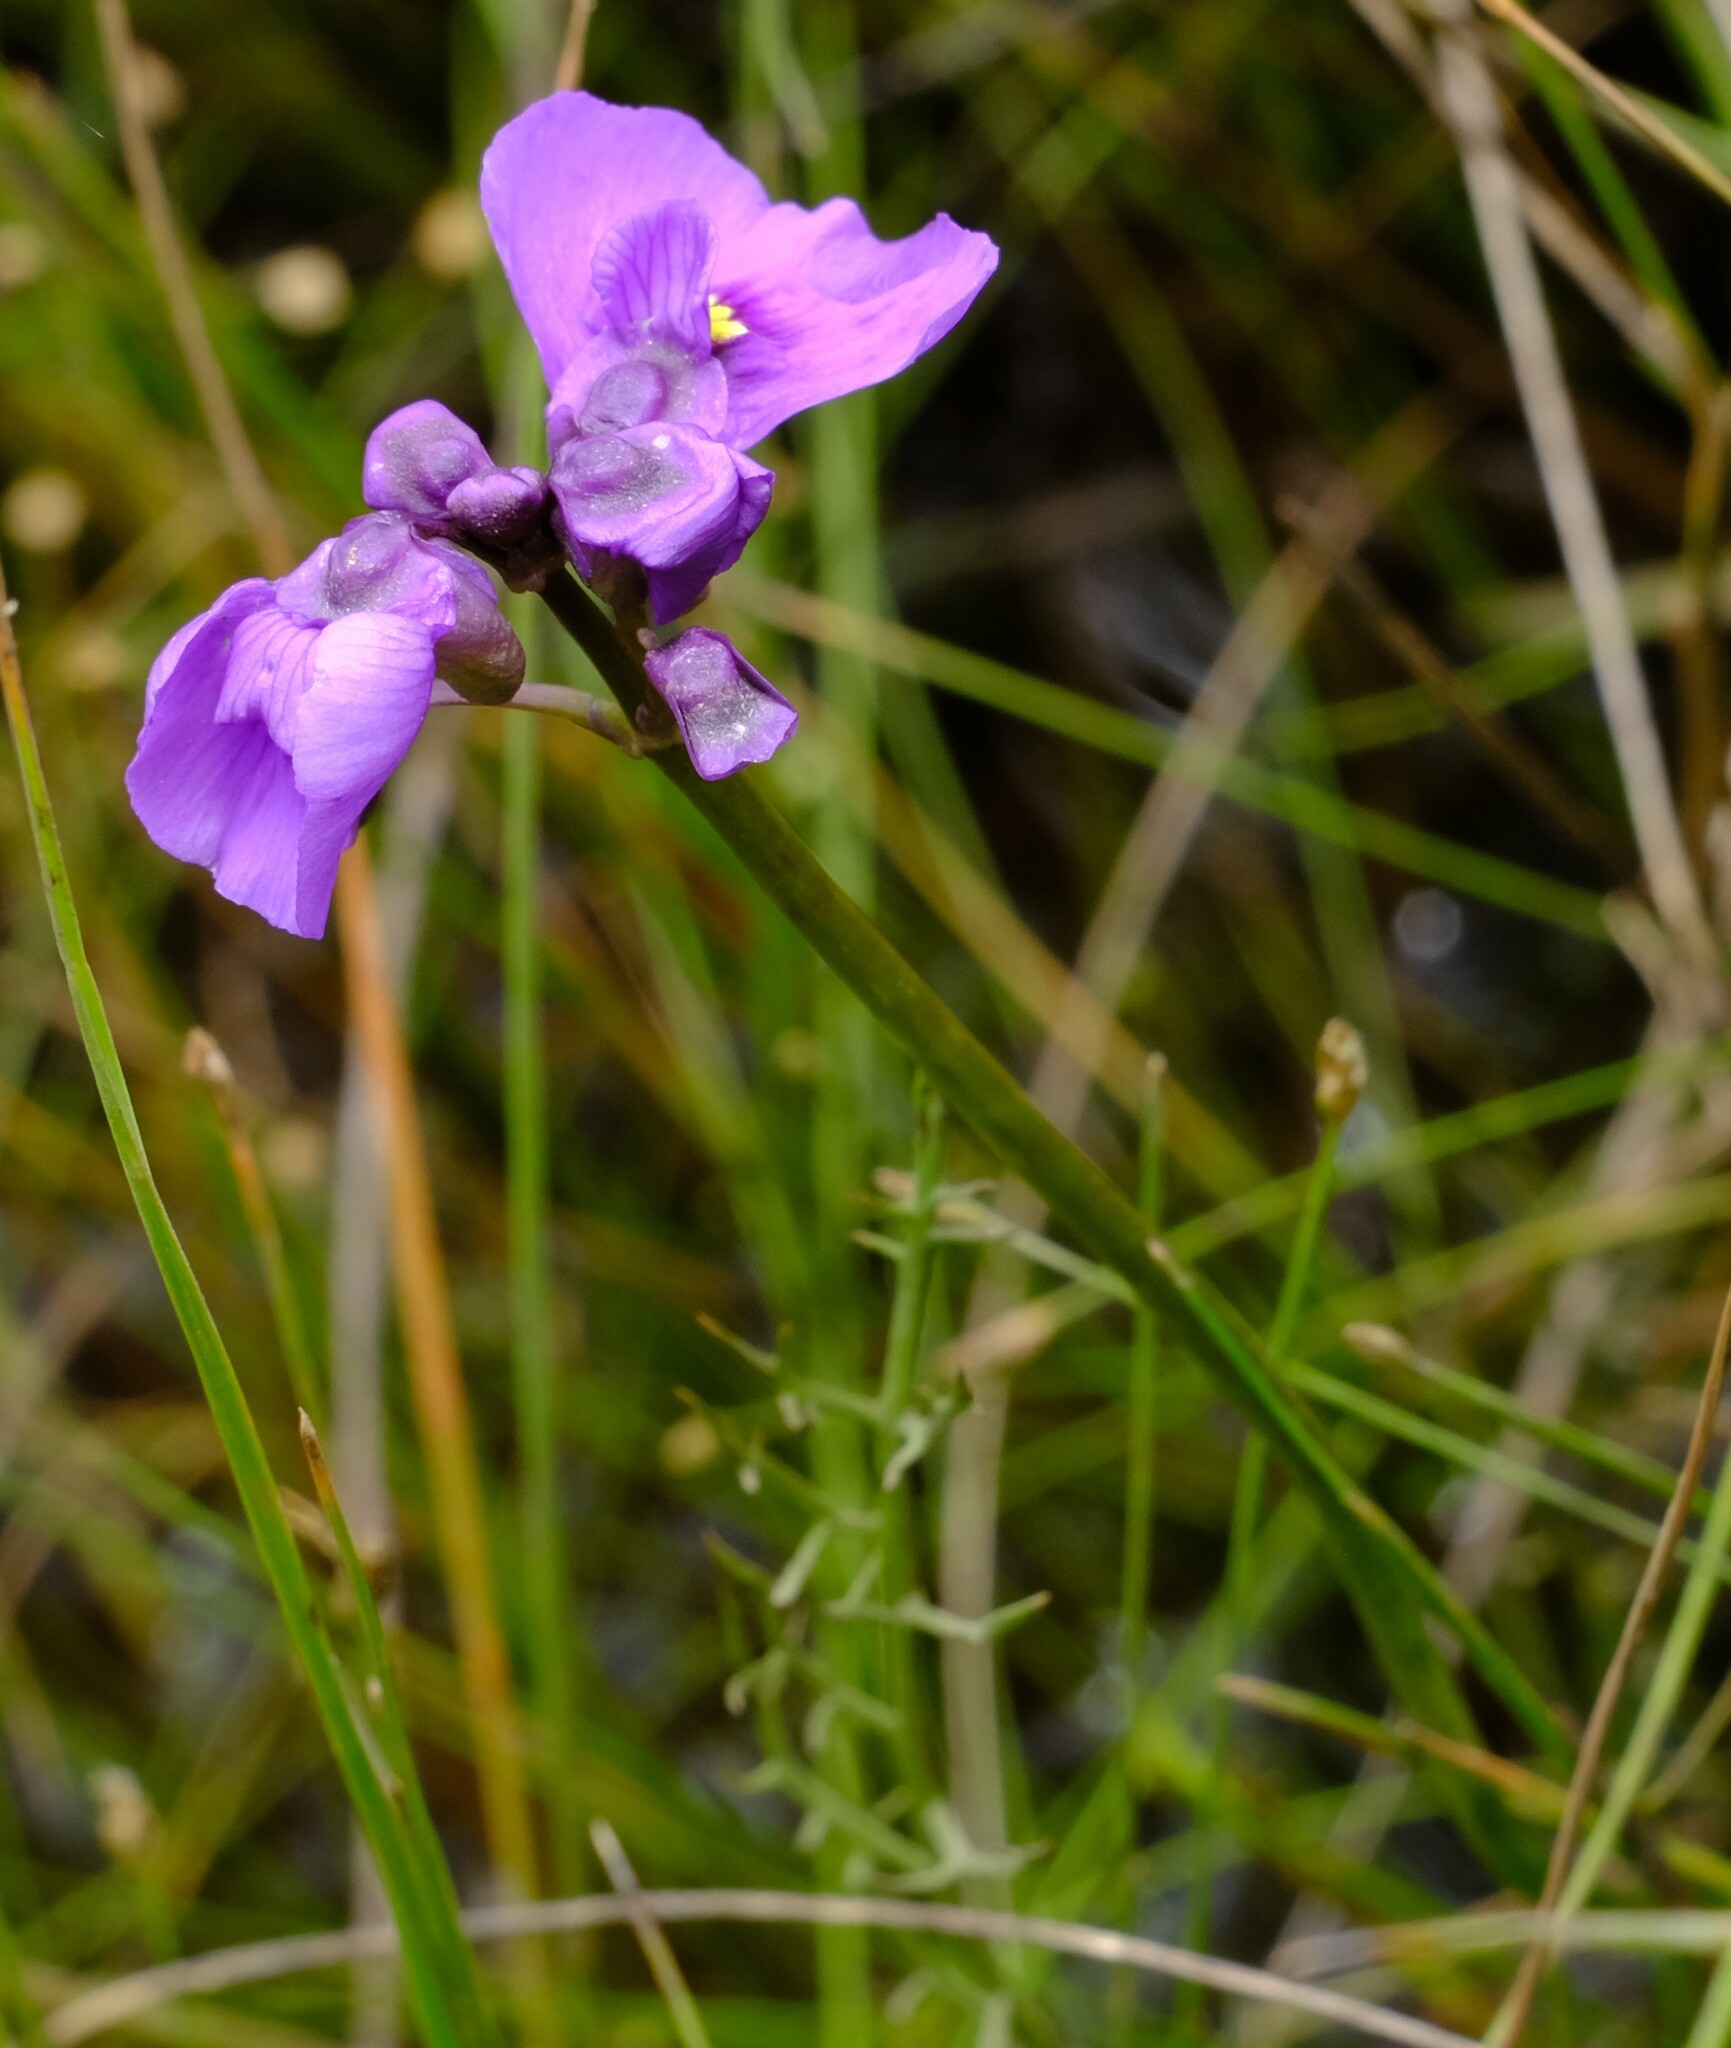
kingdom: Plantae
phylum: Tracheophyta
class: Magnoliopsida
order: Lamiales
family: Lentibulariaceae
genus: Utricularia
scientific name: Utricularia beaugleholei
